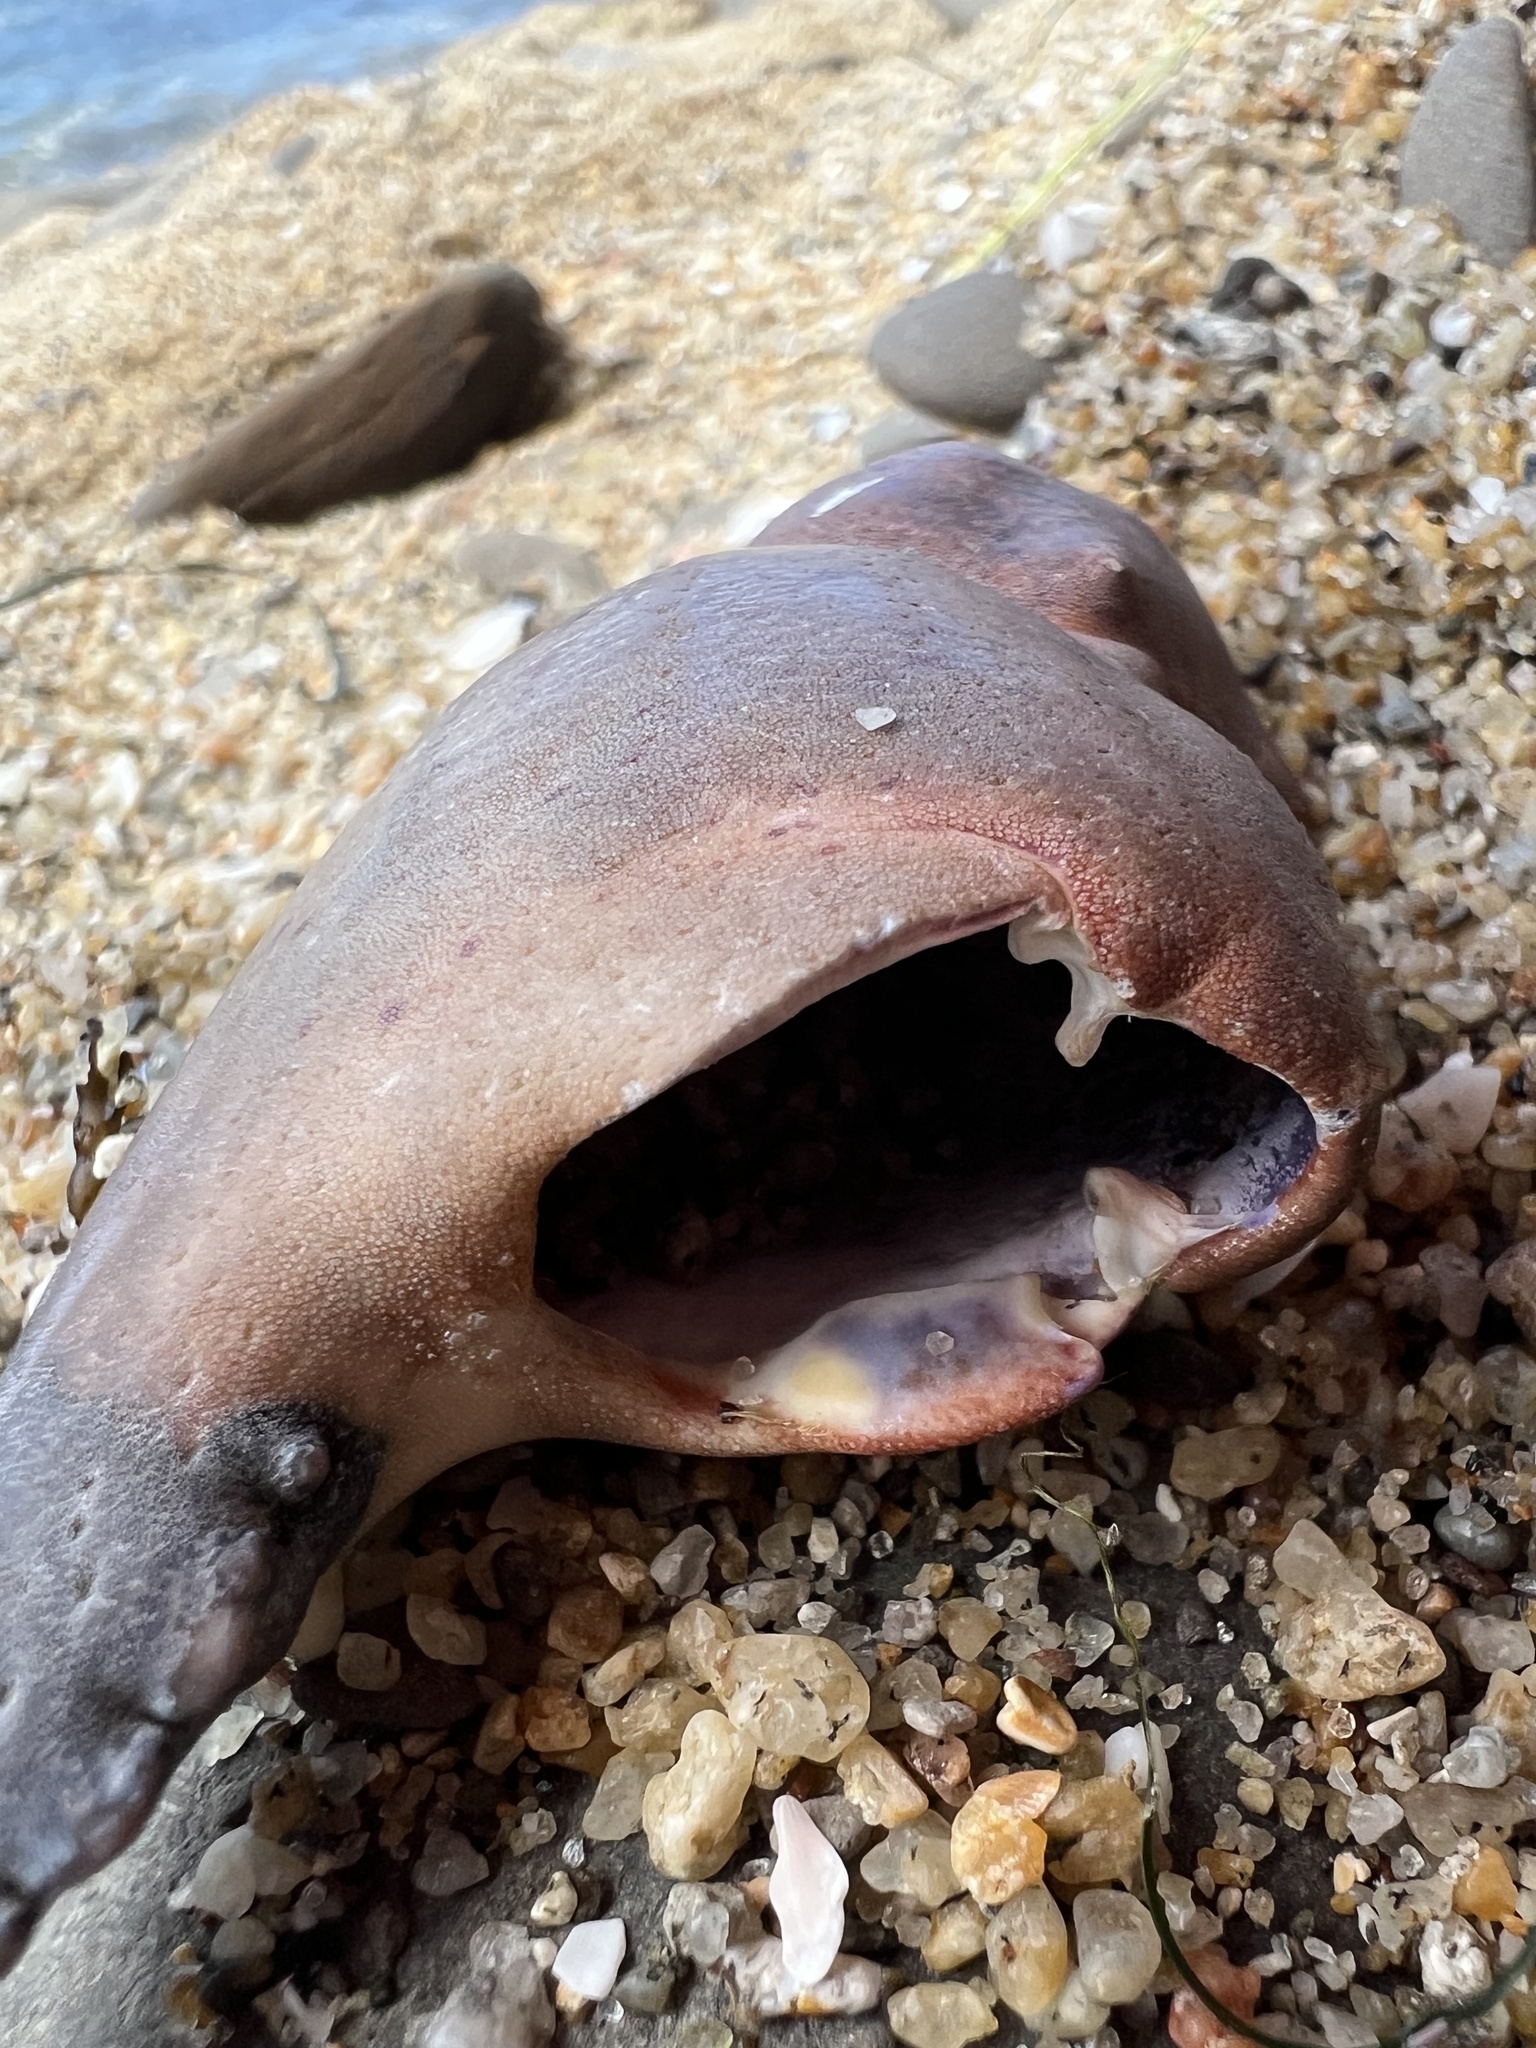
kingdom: Animalia
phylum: Arthropoda
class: Malacostraca
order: Decapoda
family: Cancridae
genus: Romaleon
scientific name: Romaleon antennarium
